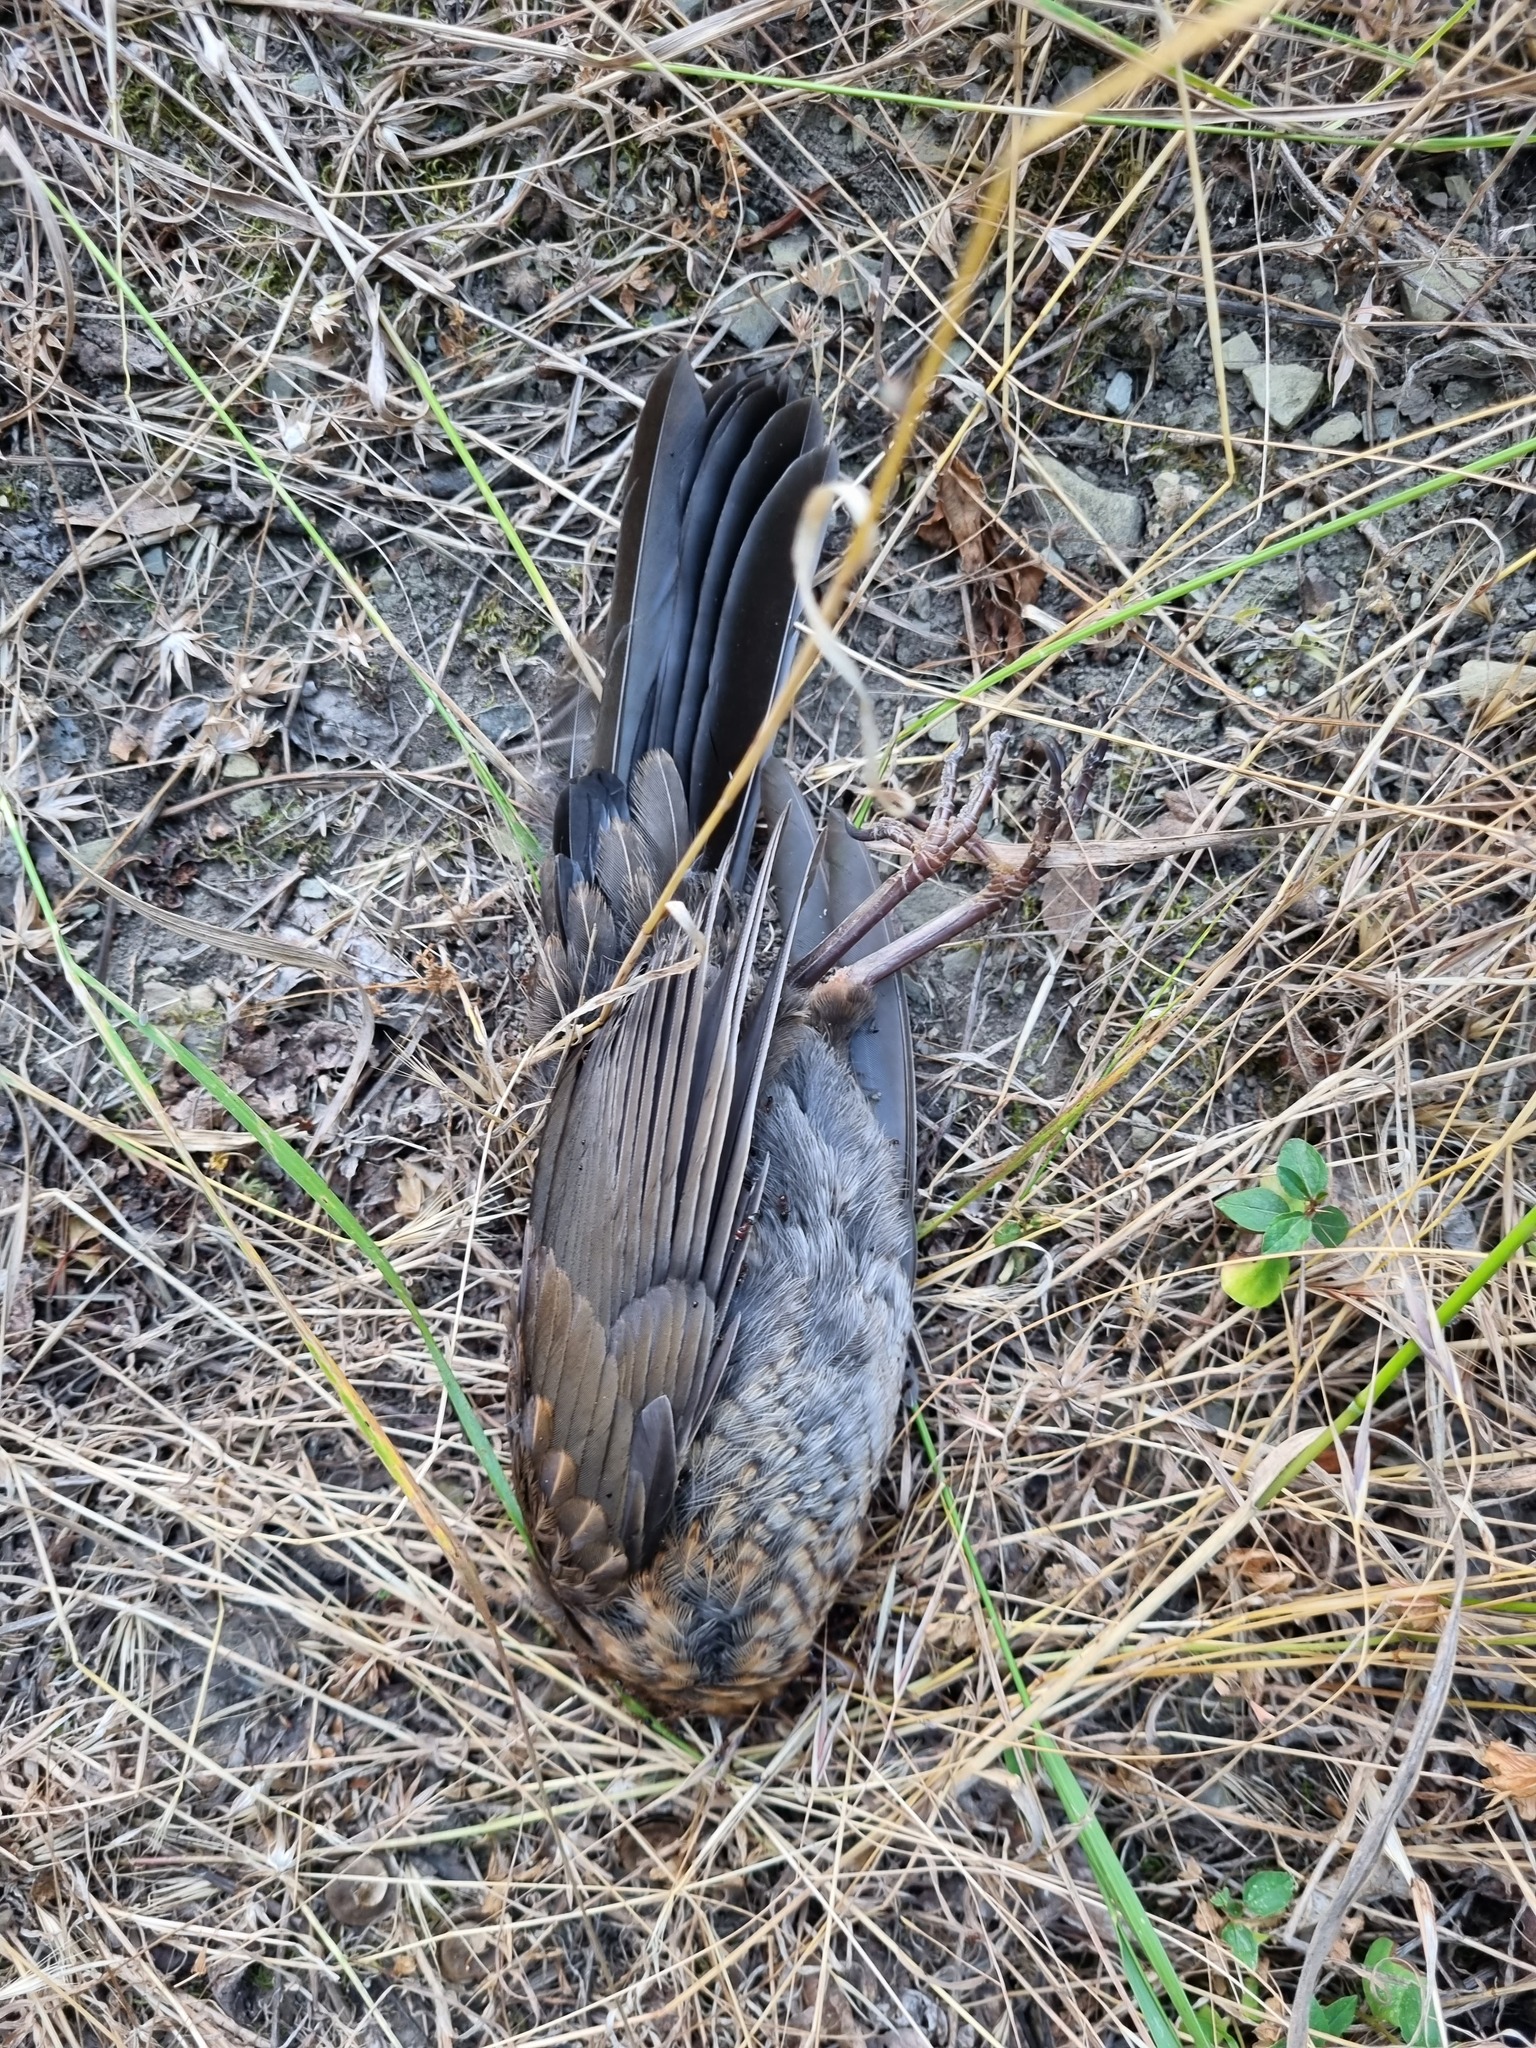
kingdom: Animalia
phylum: Chordata
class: Aves
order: Passeriformes
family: Turdidae
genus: Turdus
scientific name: Turdus merula
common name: Common blackbird
